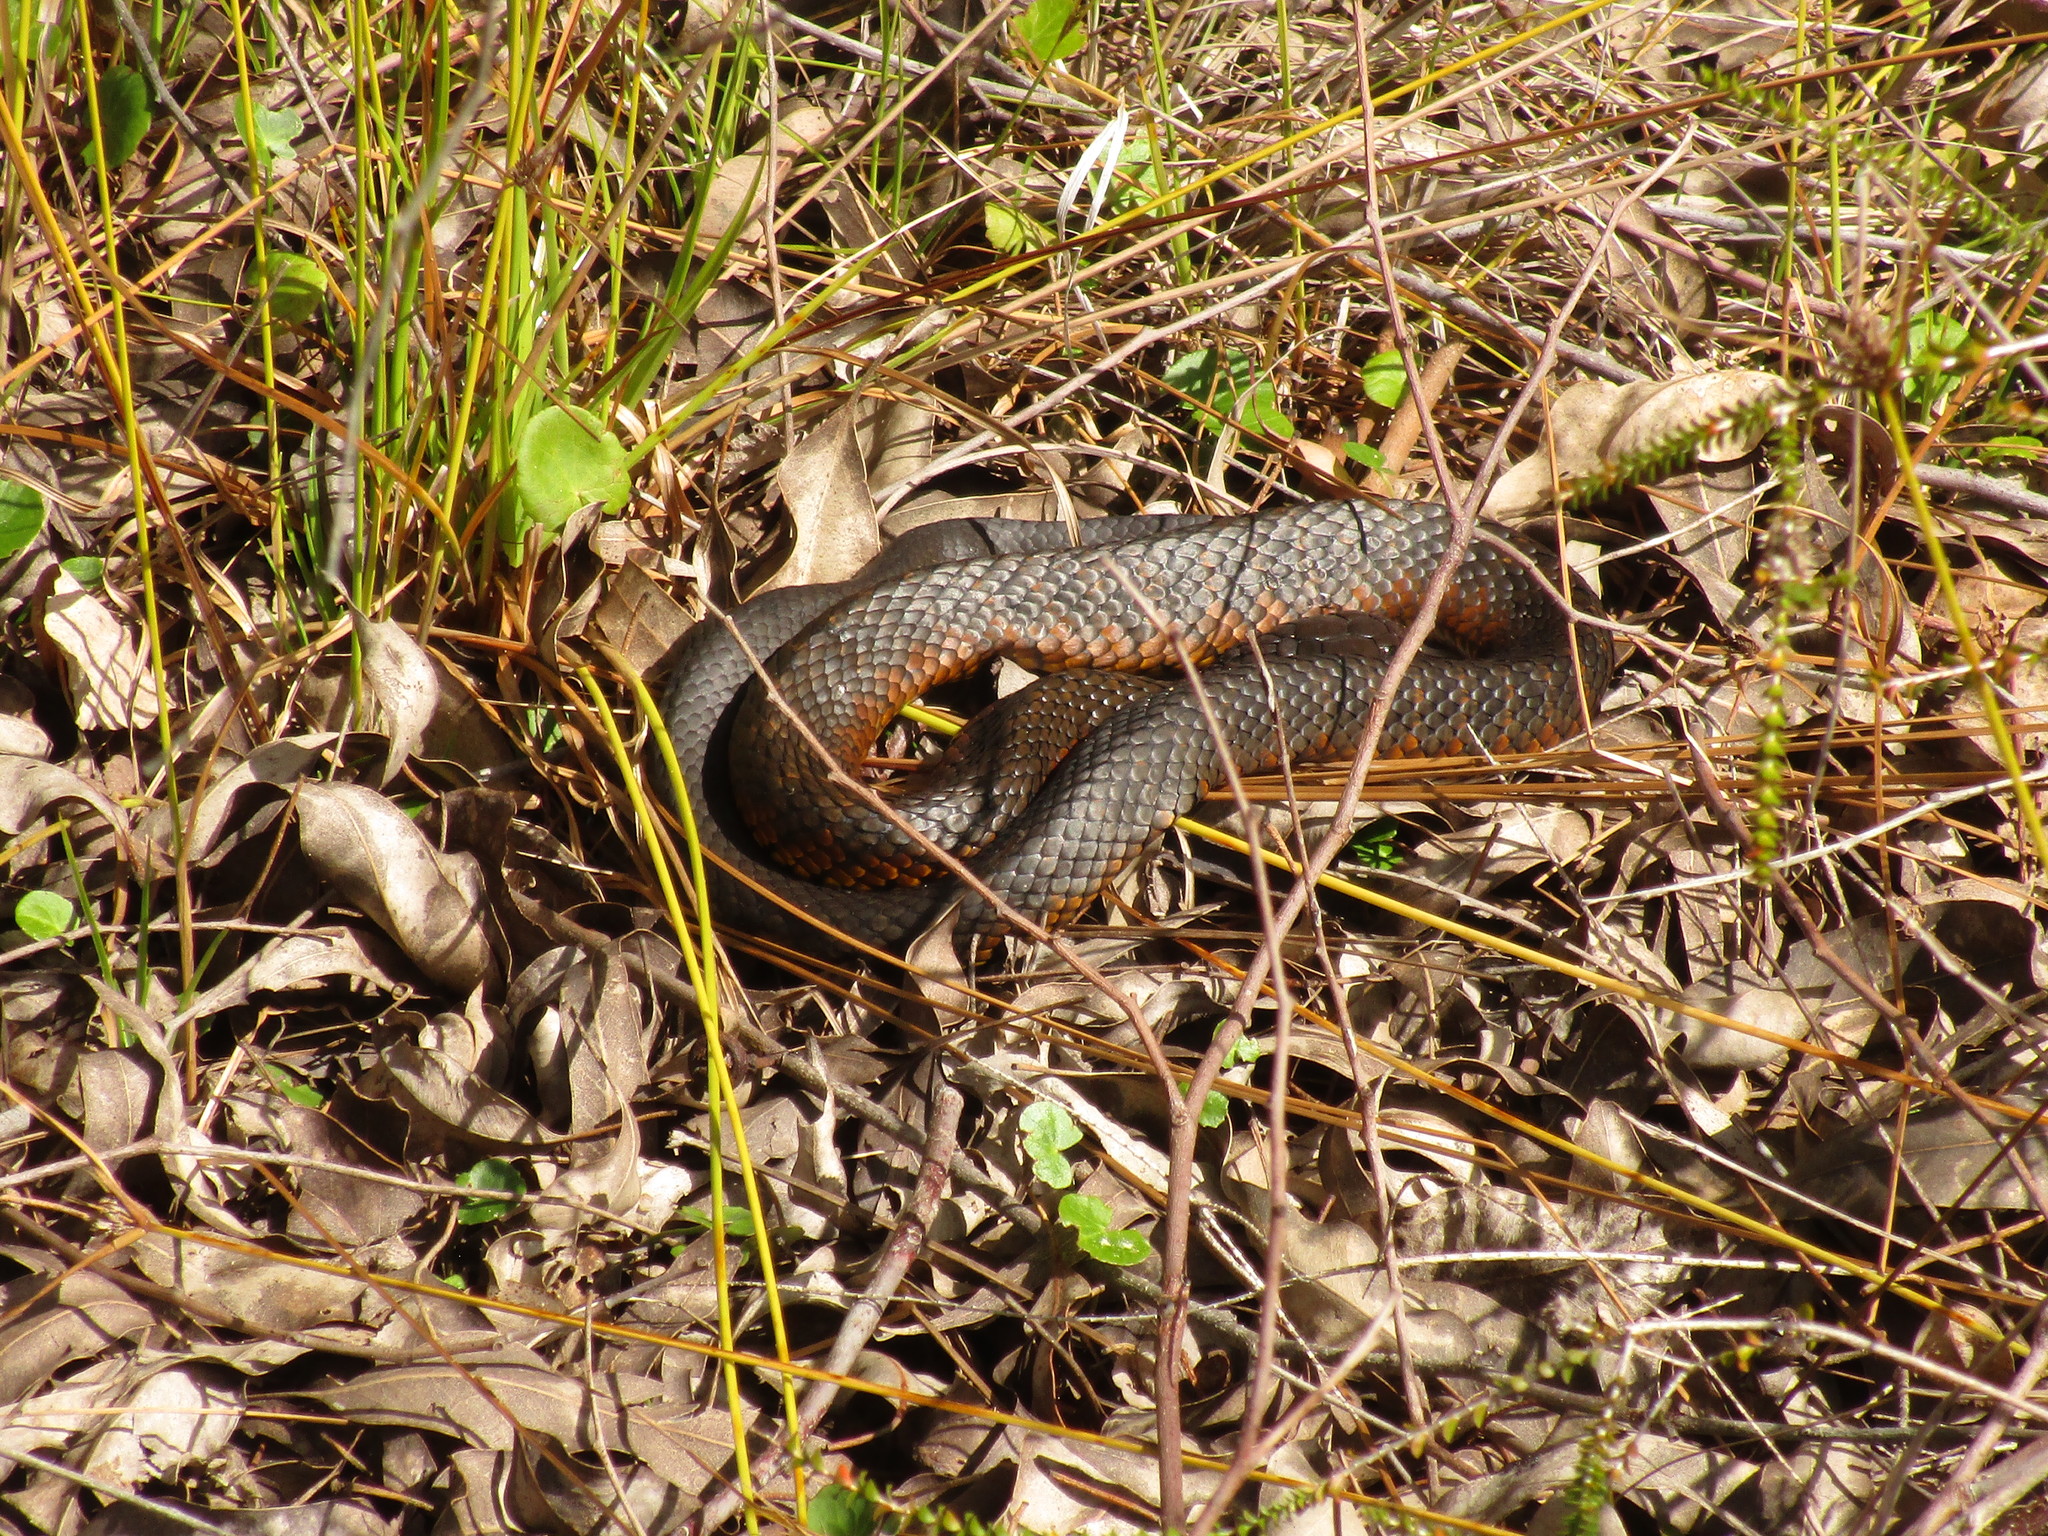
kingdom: Animalia
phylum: Chordata
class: Squamata
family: Elapidae
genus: Notechis
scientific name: Notechis scutatus
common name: Mainland tiger snake
